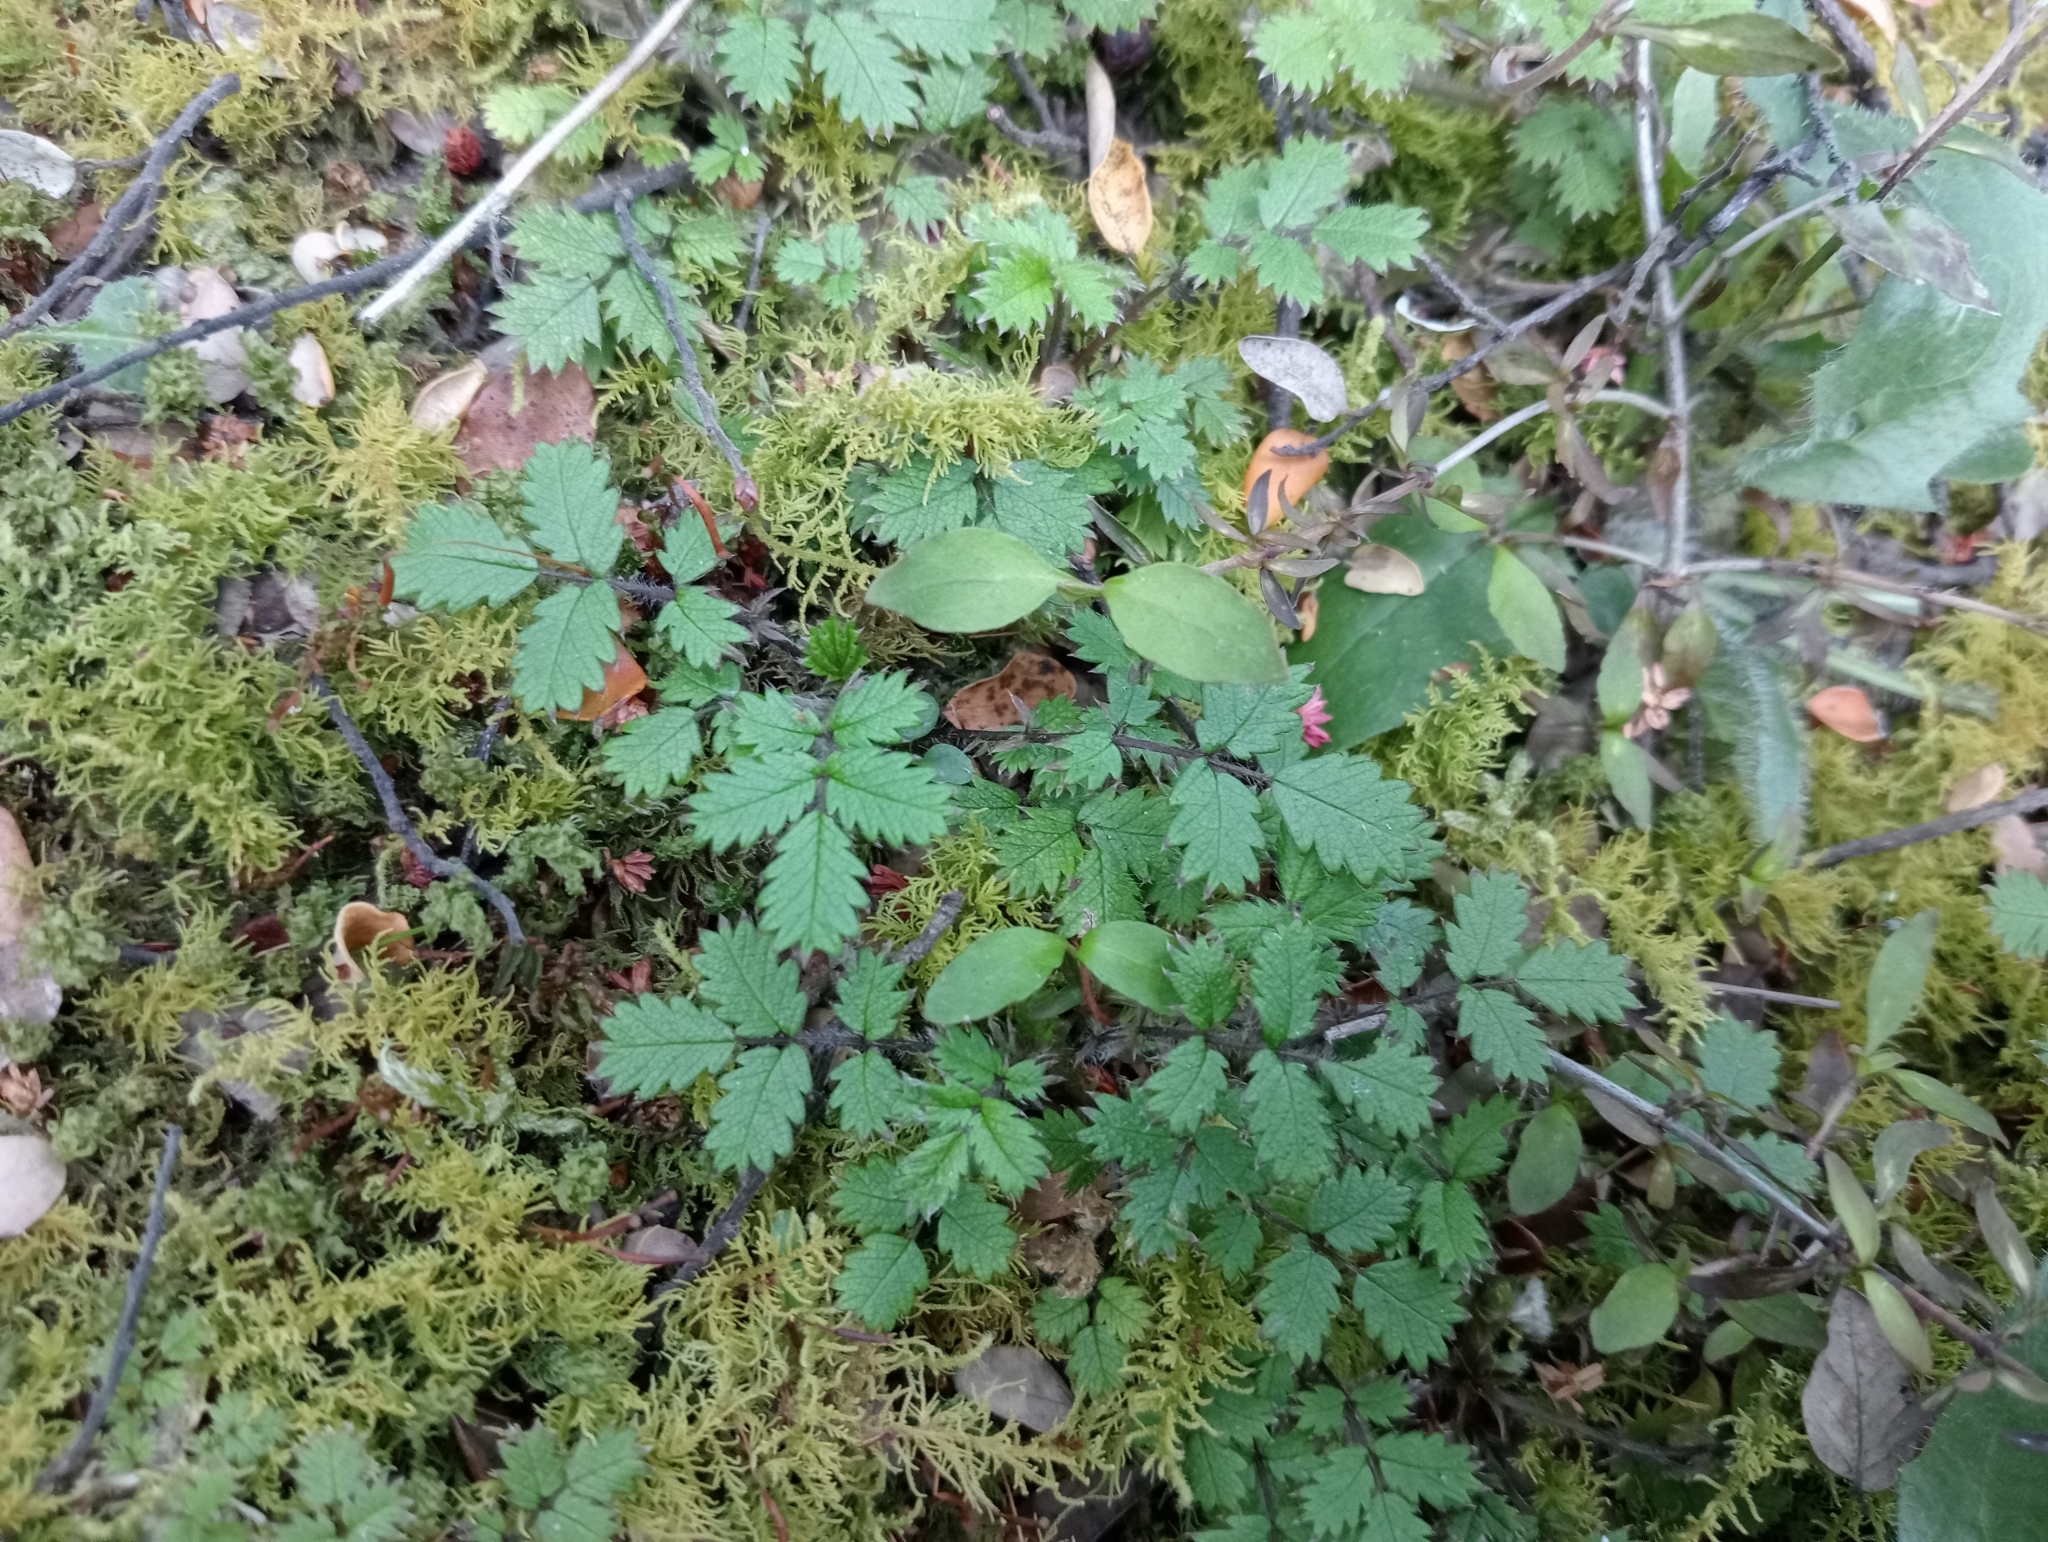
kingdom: Plantae
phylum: Tracheophyta
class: Magnoliopsida
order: Rosales
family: Rosaceae
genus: Acaena
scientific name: Acaena juvenca
